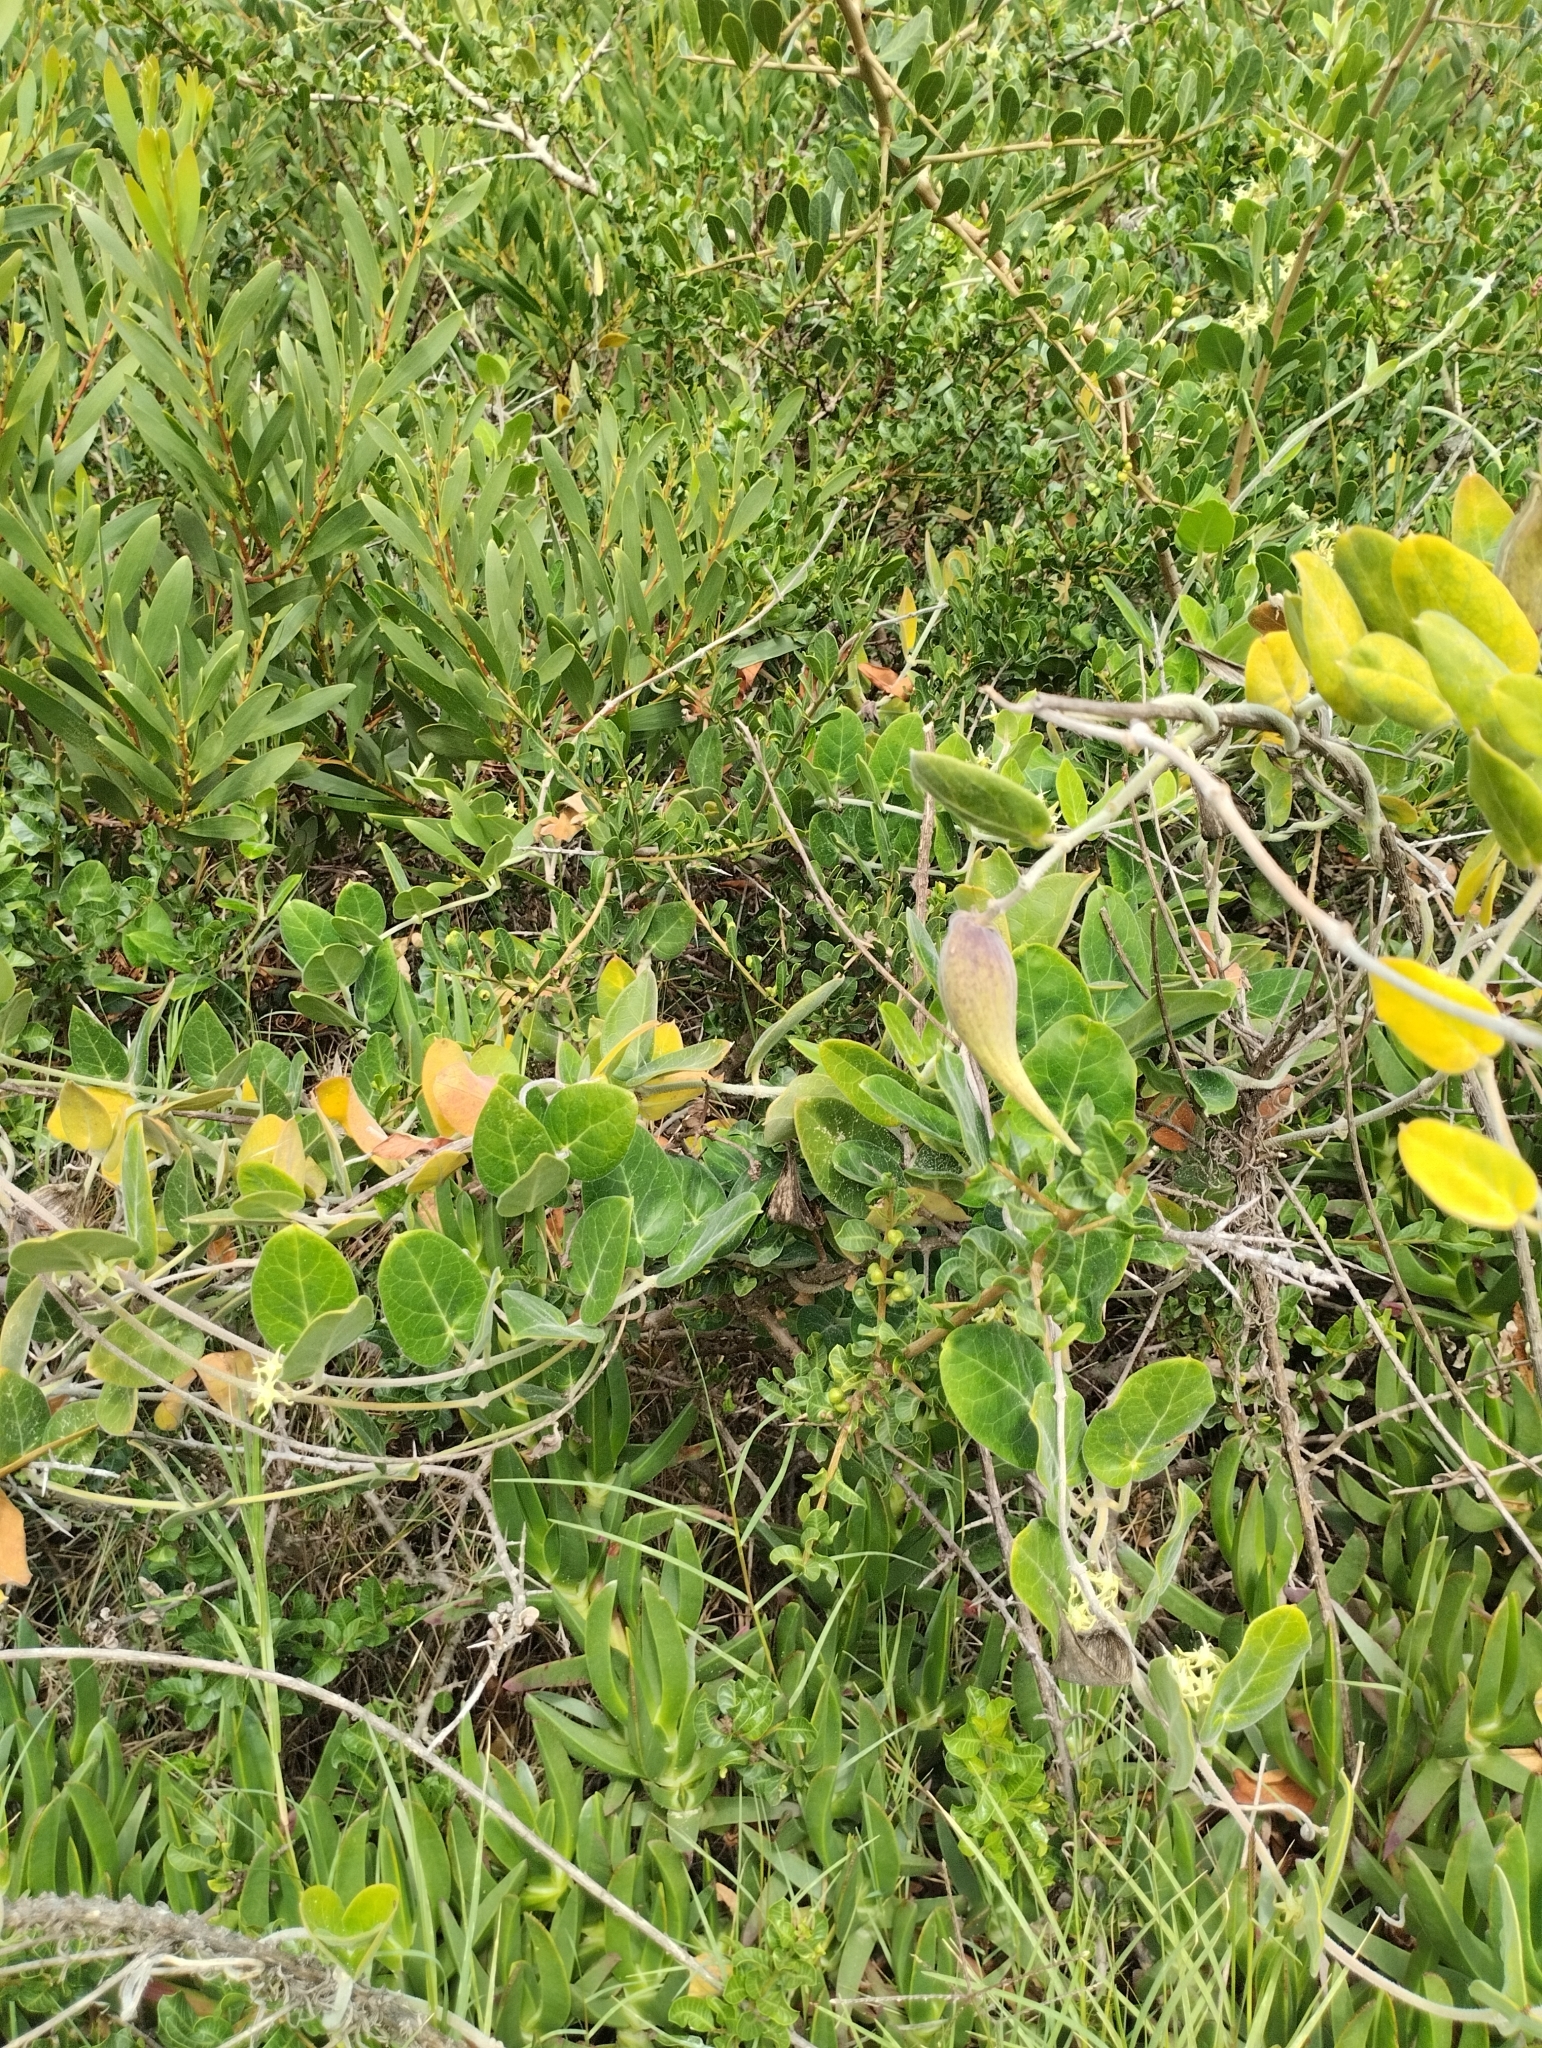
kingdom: Plantae
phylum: Tracheophyta
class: Magnoliopsida
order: Gentianales
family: Apocynaceae
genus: Oxypetalum
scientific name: Oxypetalum tomentosum
